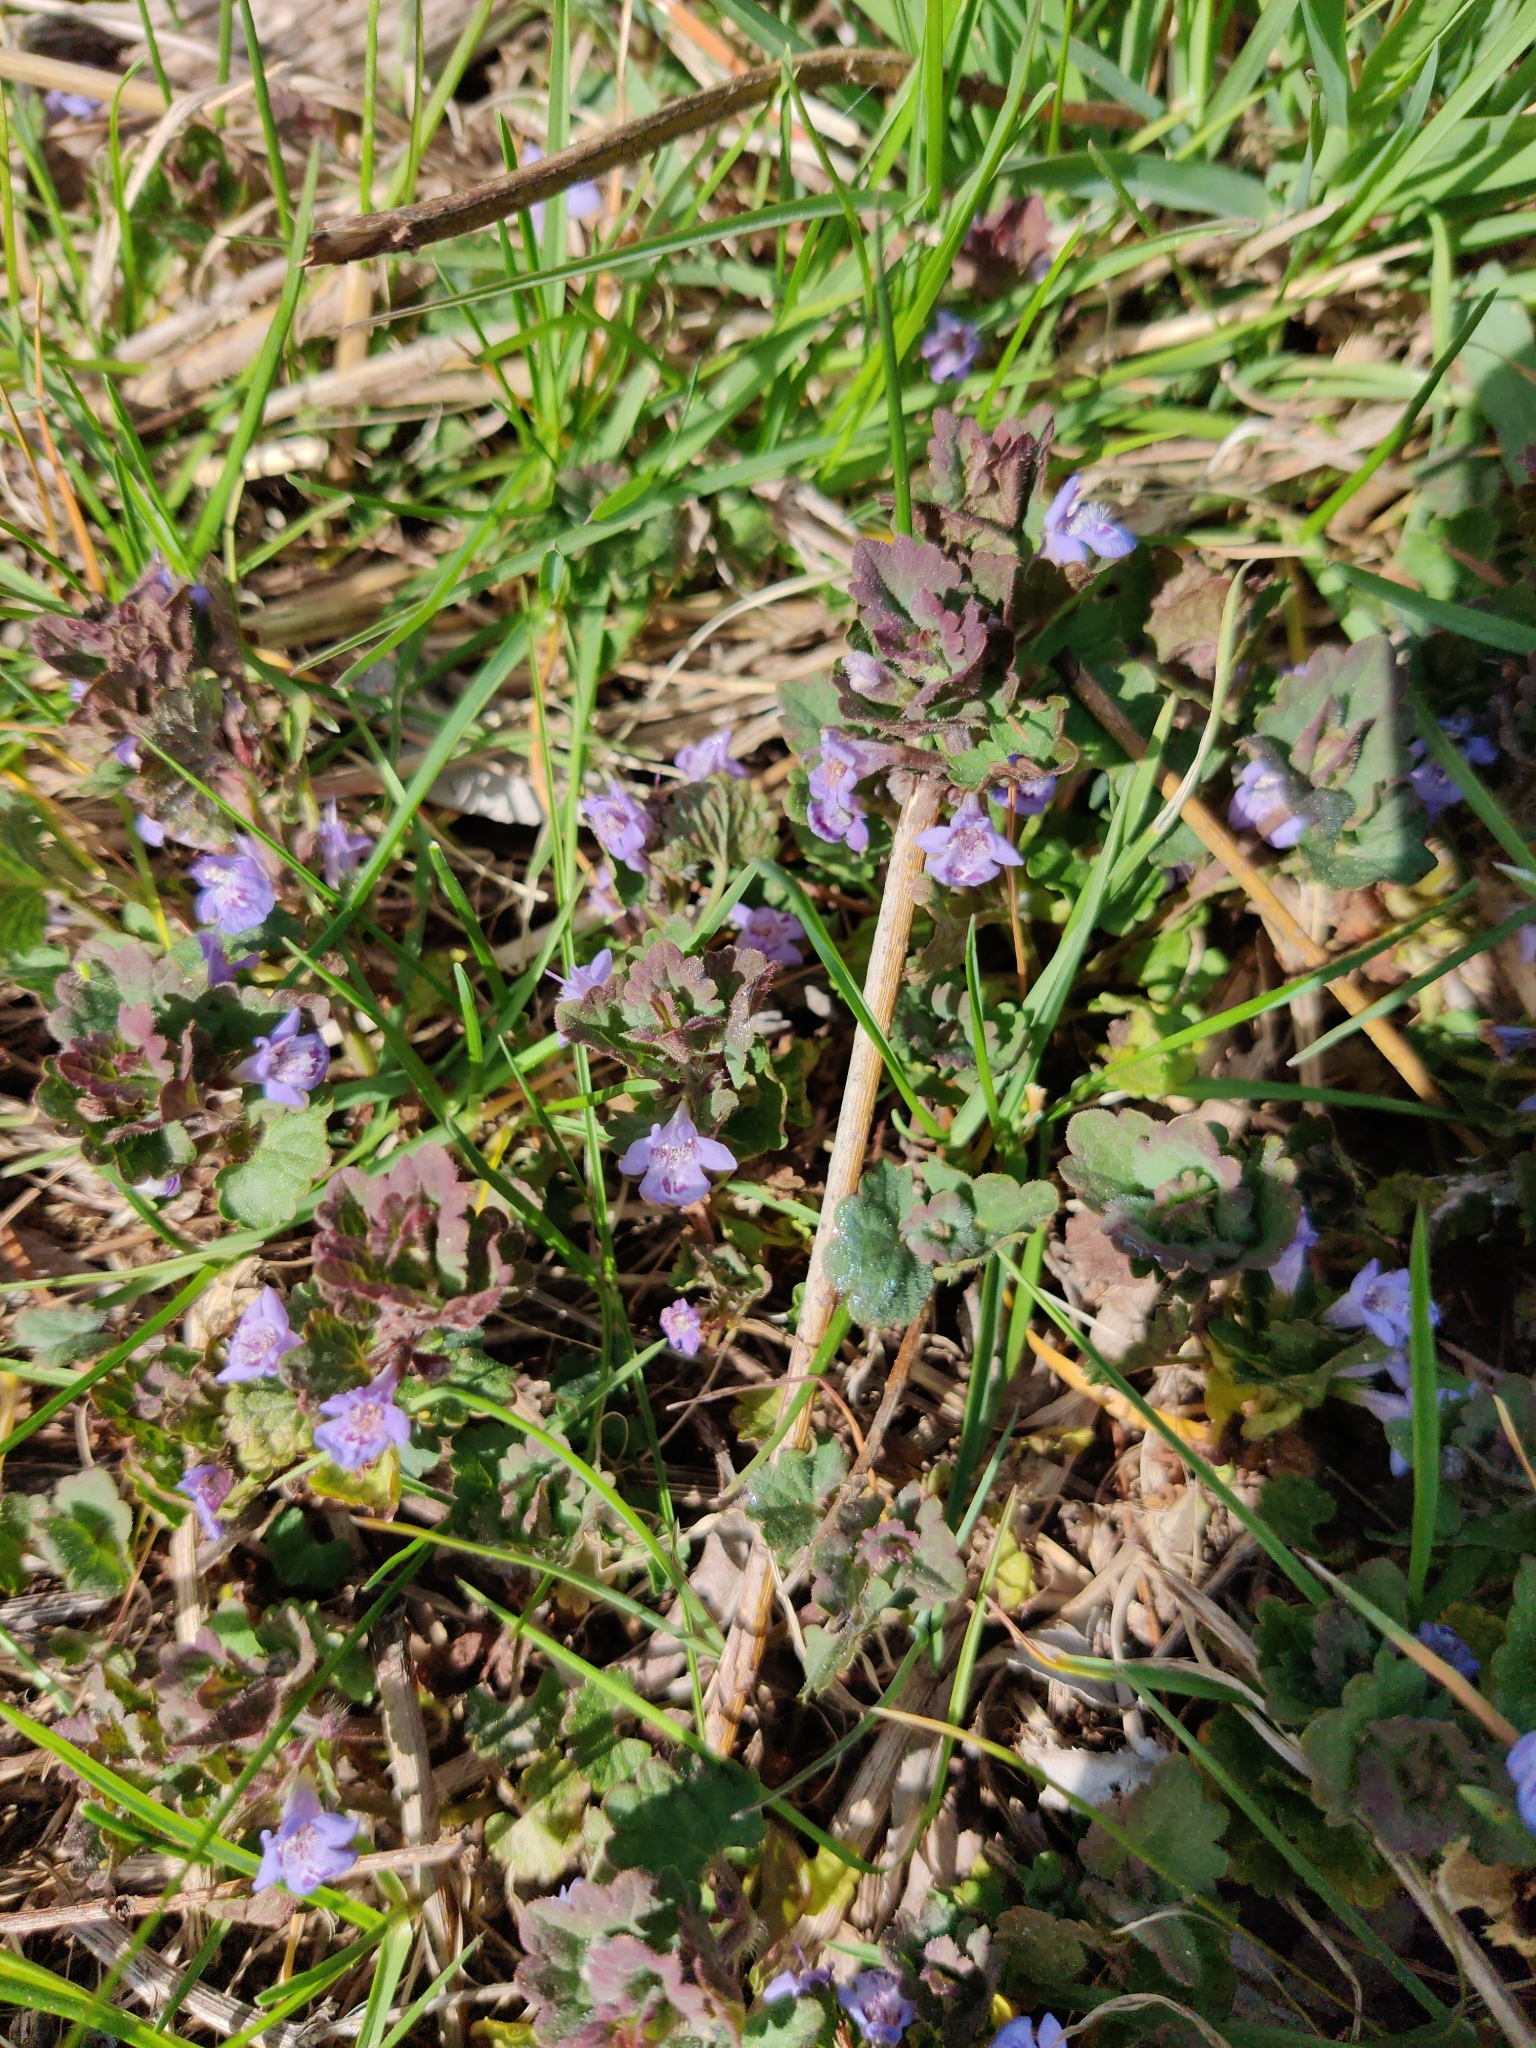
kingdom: Plantae
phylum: Tracheophyta
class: Magnoliopsida
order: Lamiales
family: Lamiaceae
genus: Glechoma
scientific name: Glechoma hederacea
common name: Ground ivy
